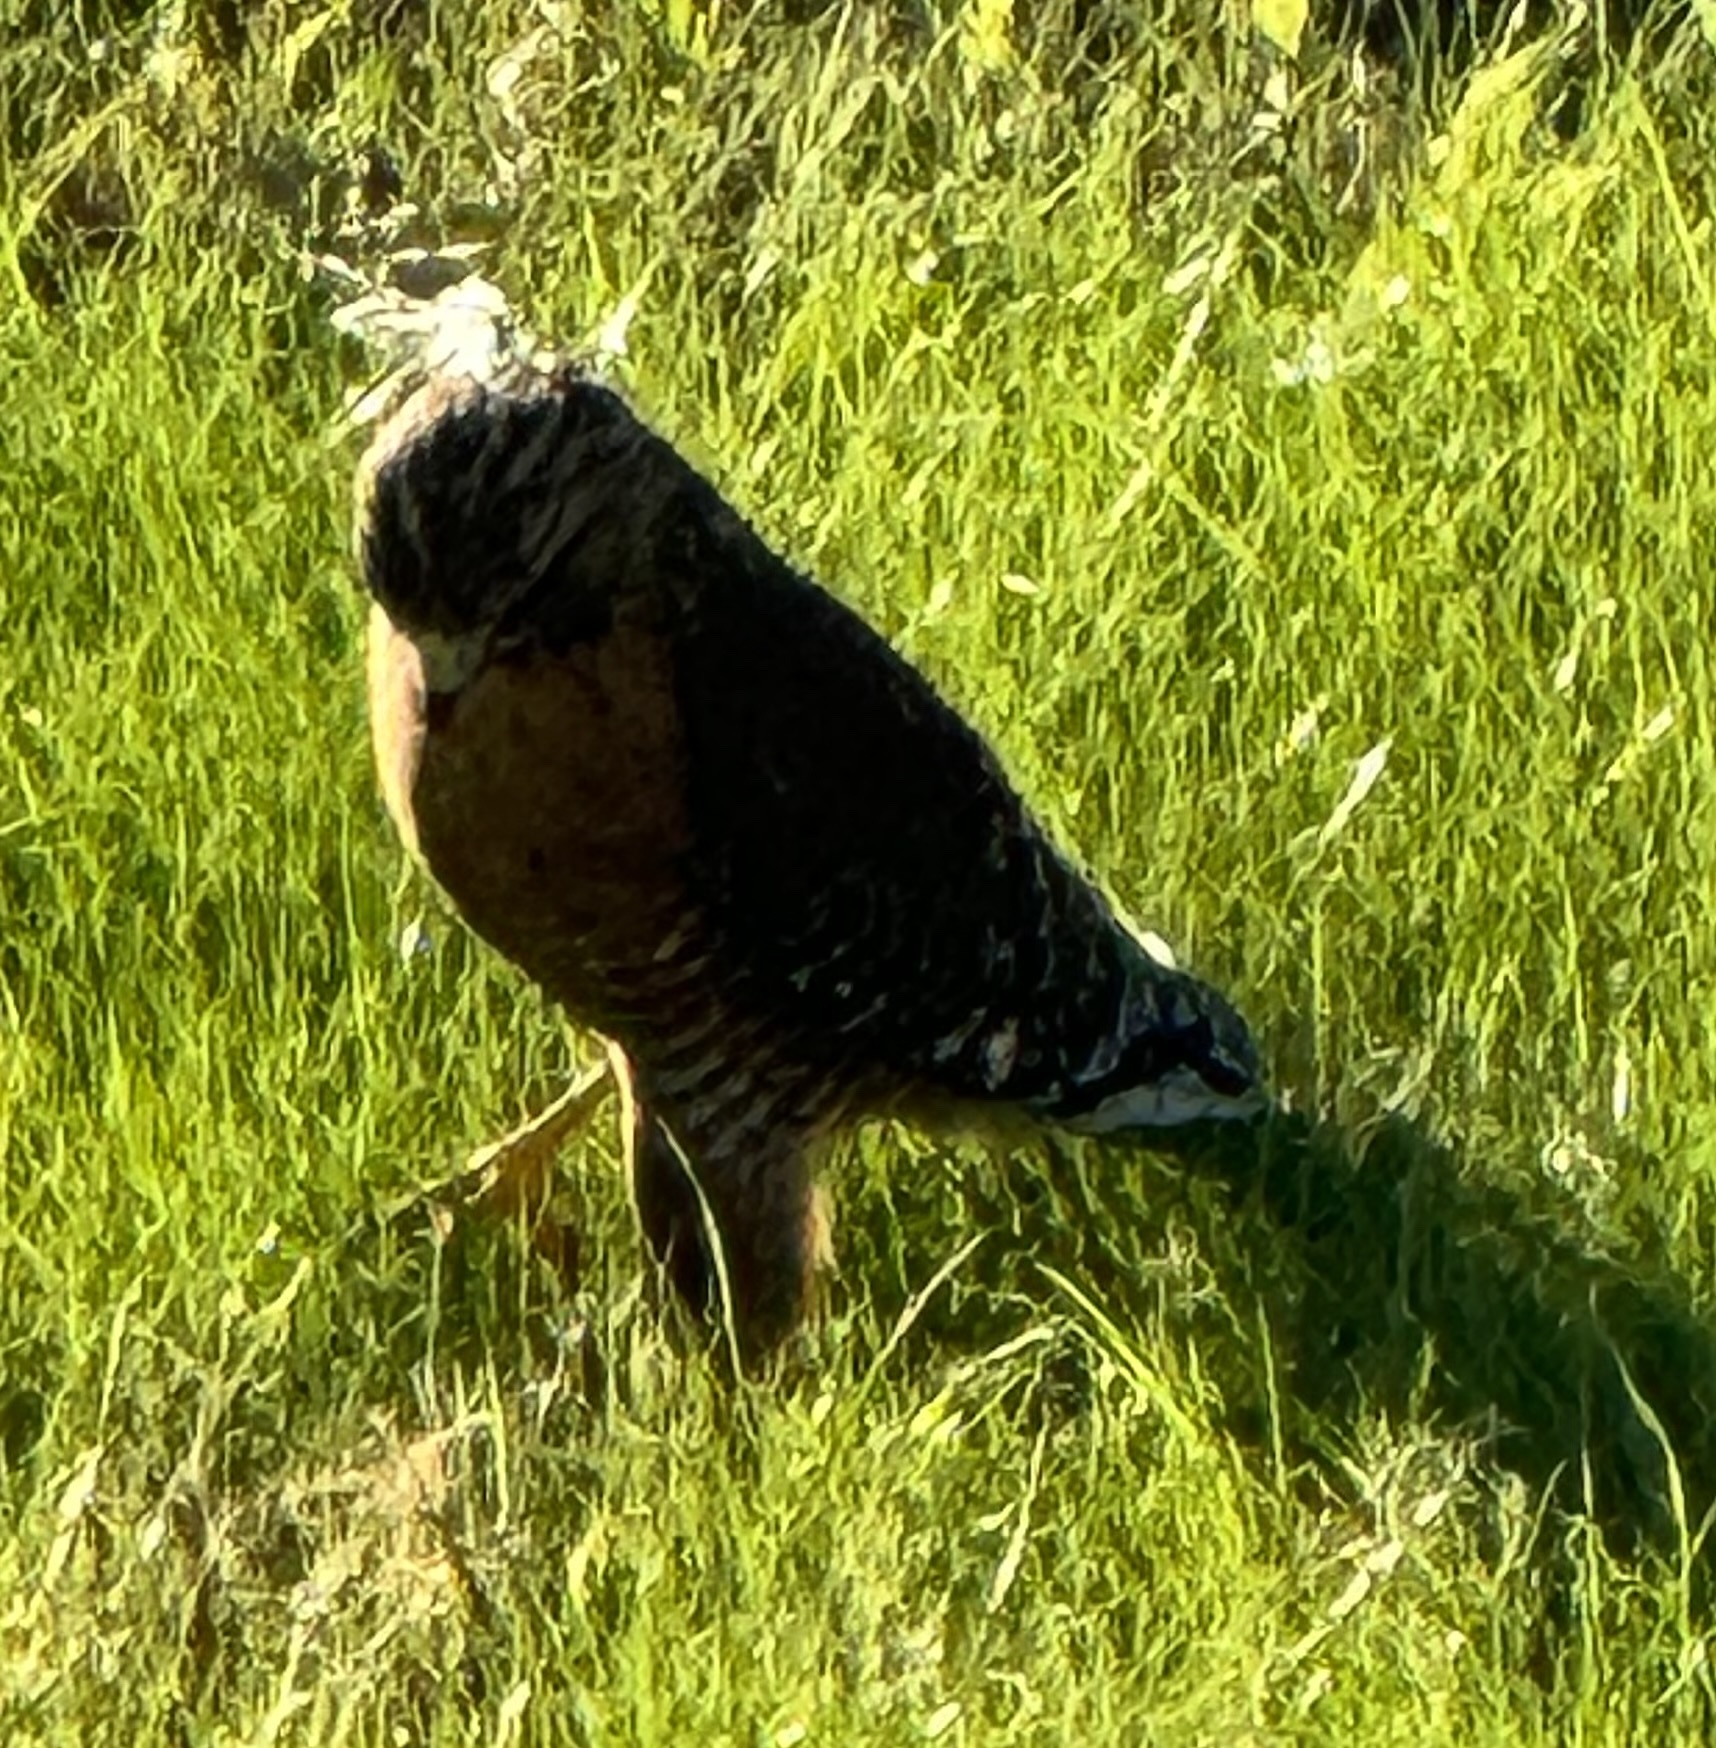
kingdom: Animalia
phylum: Chordata
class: Aves
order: Accipitriformes
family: Accipitridae
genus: Buteo
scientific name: Buteo lineatus
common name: Red-shouldered hawk
